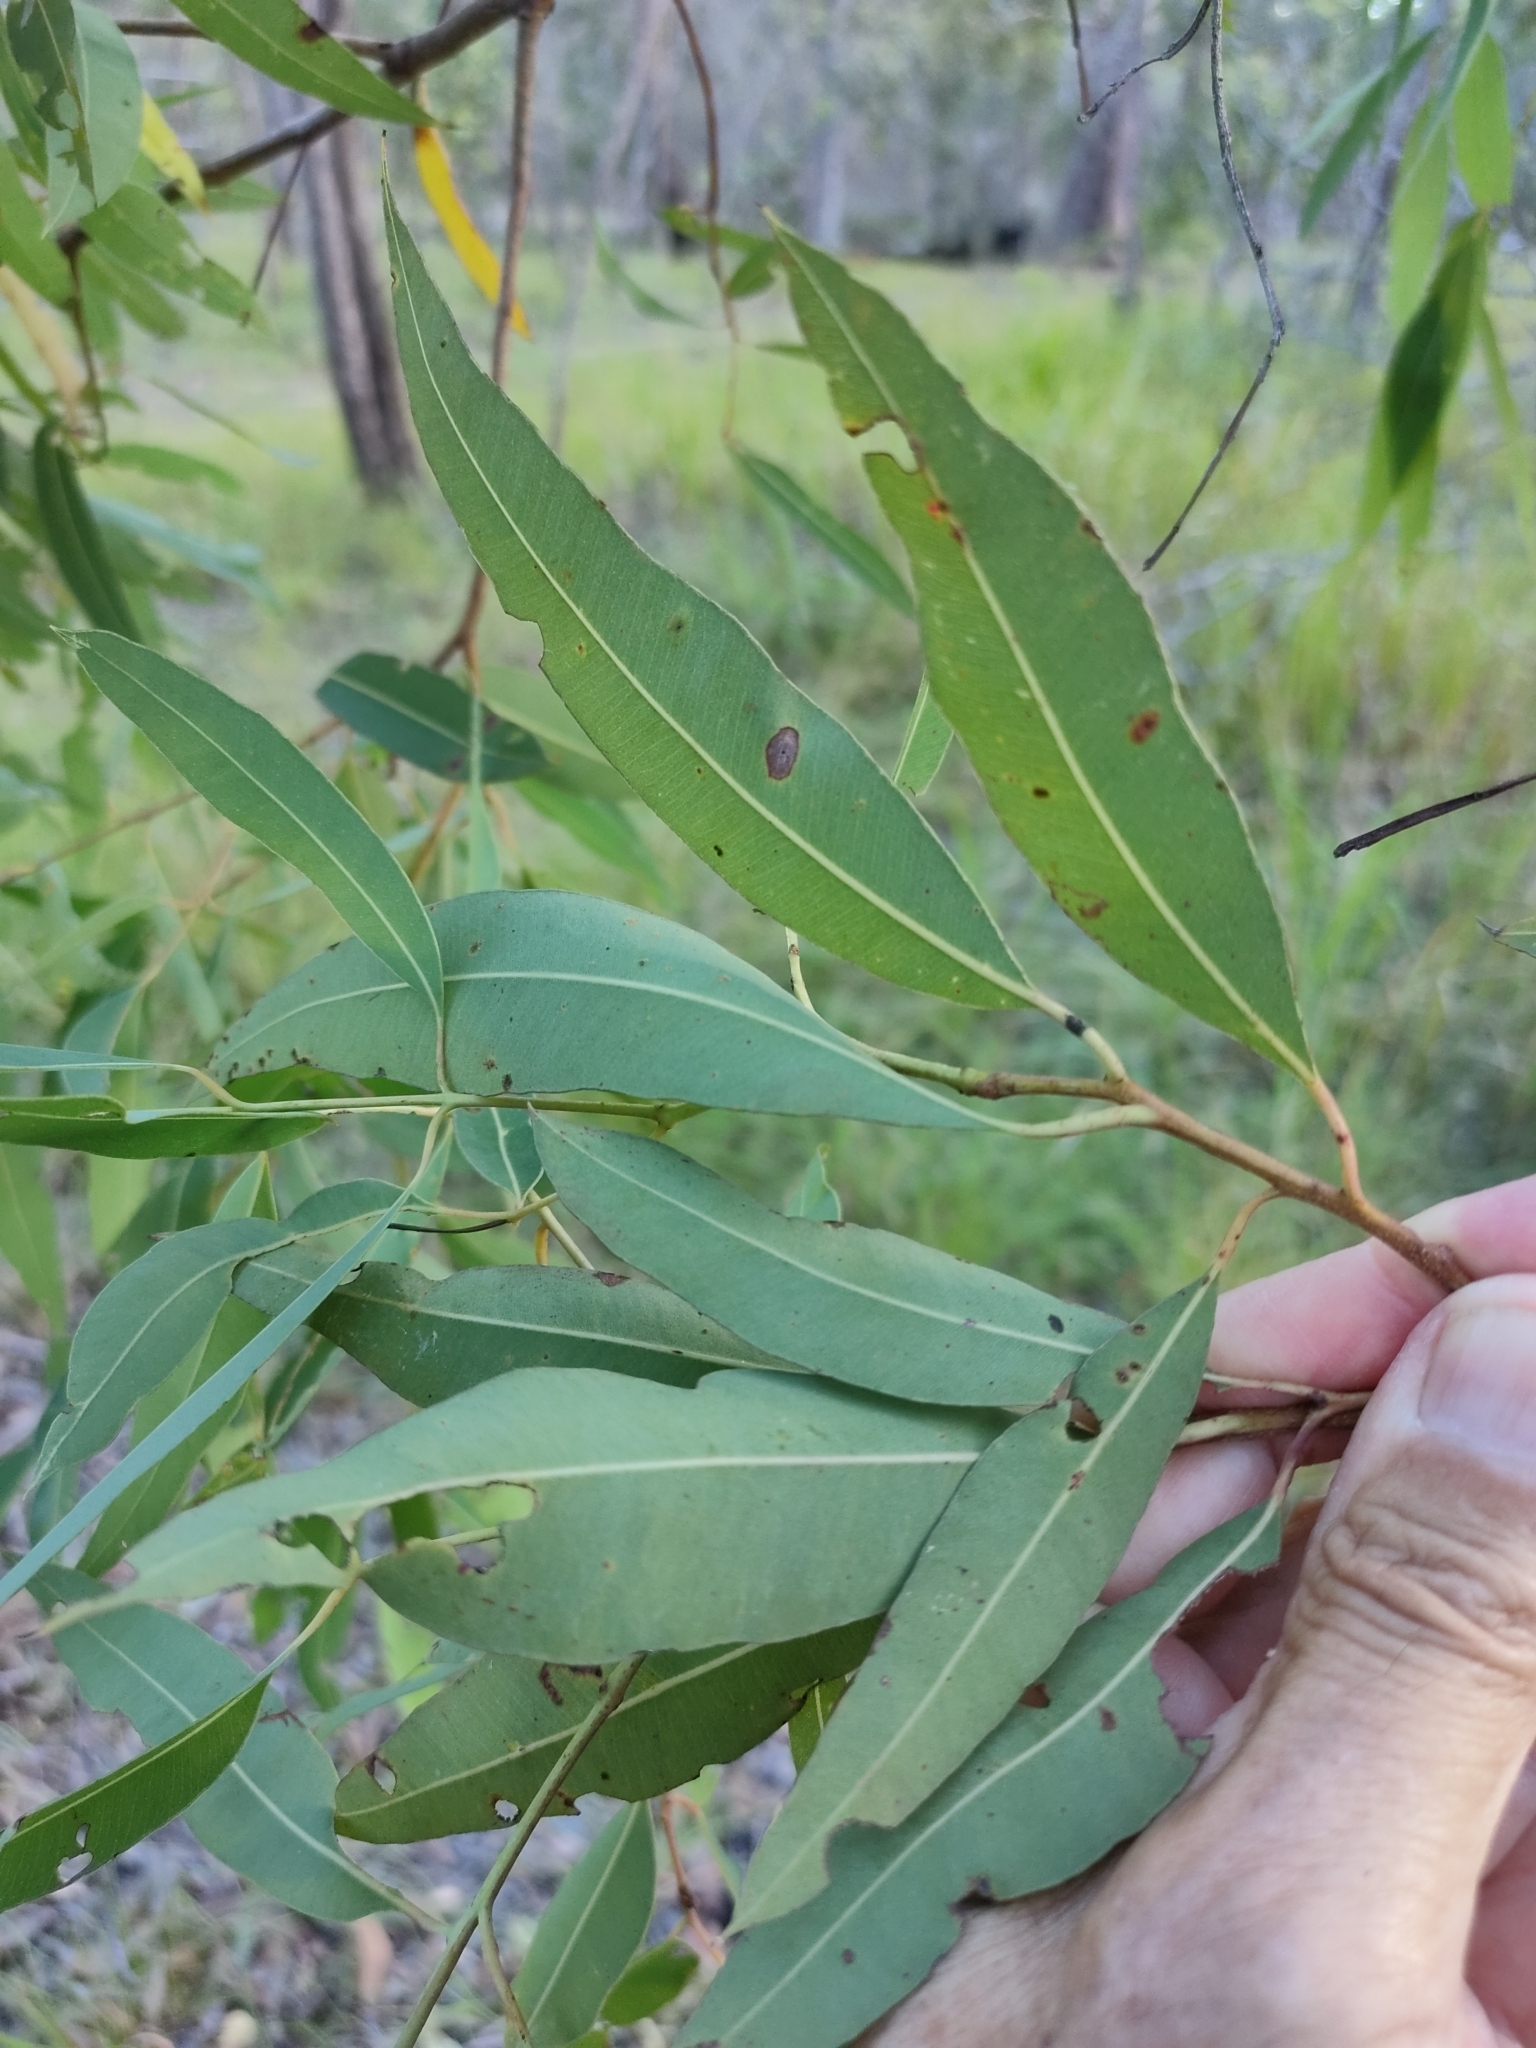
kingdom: Plantae
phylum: Tracheophyta
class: Magnoliopsida
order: Myrtales
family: Myrtaceae
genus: Corymbia
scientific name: Corymbia trachyphloia
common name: Brown-bloodwood
